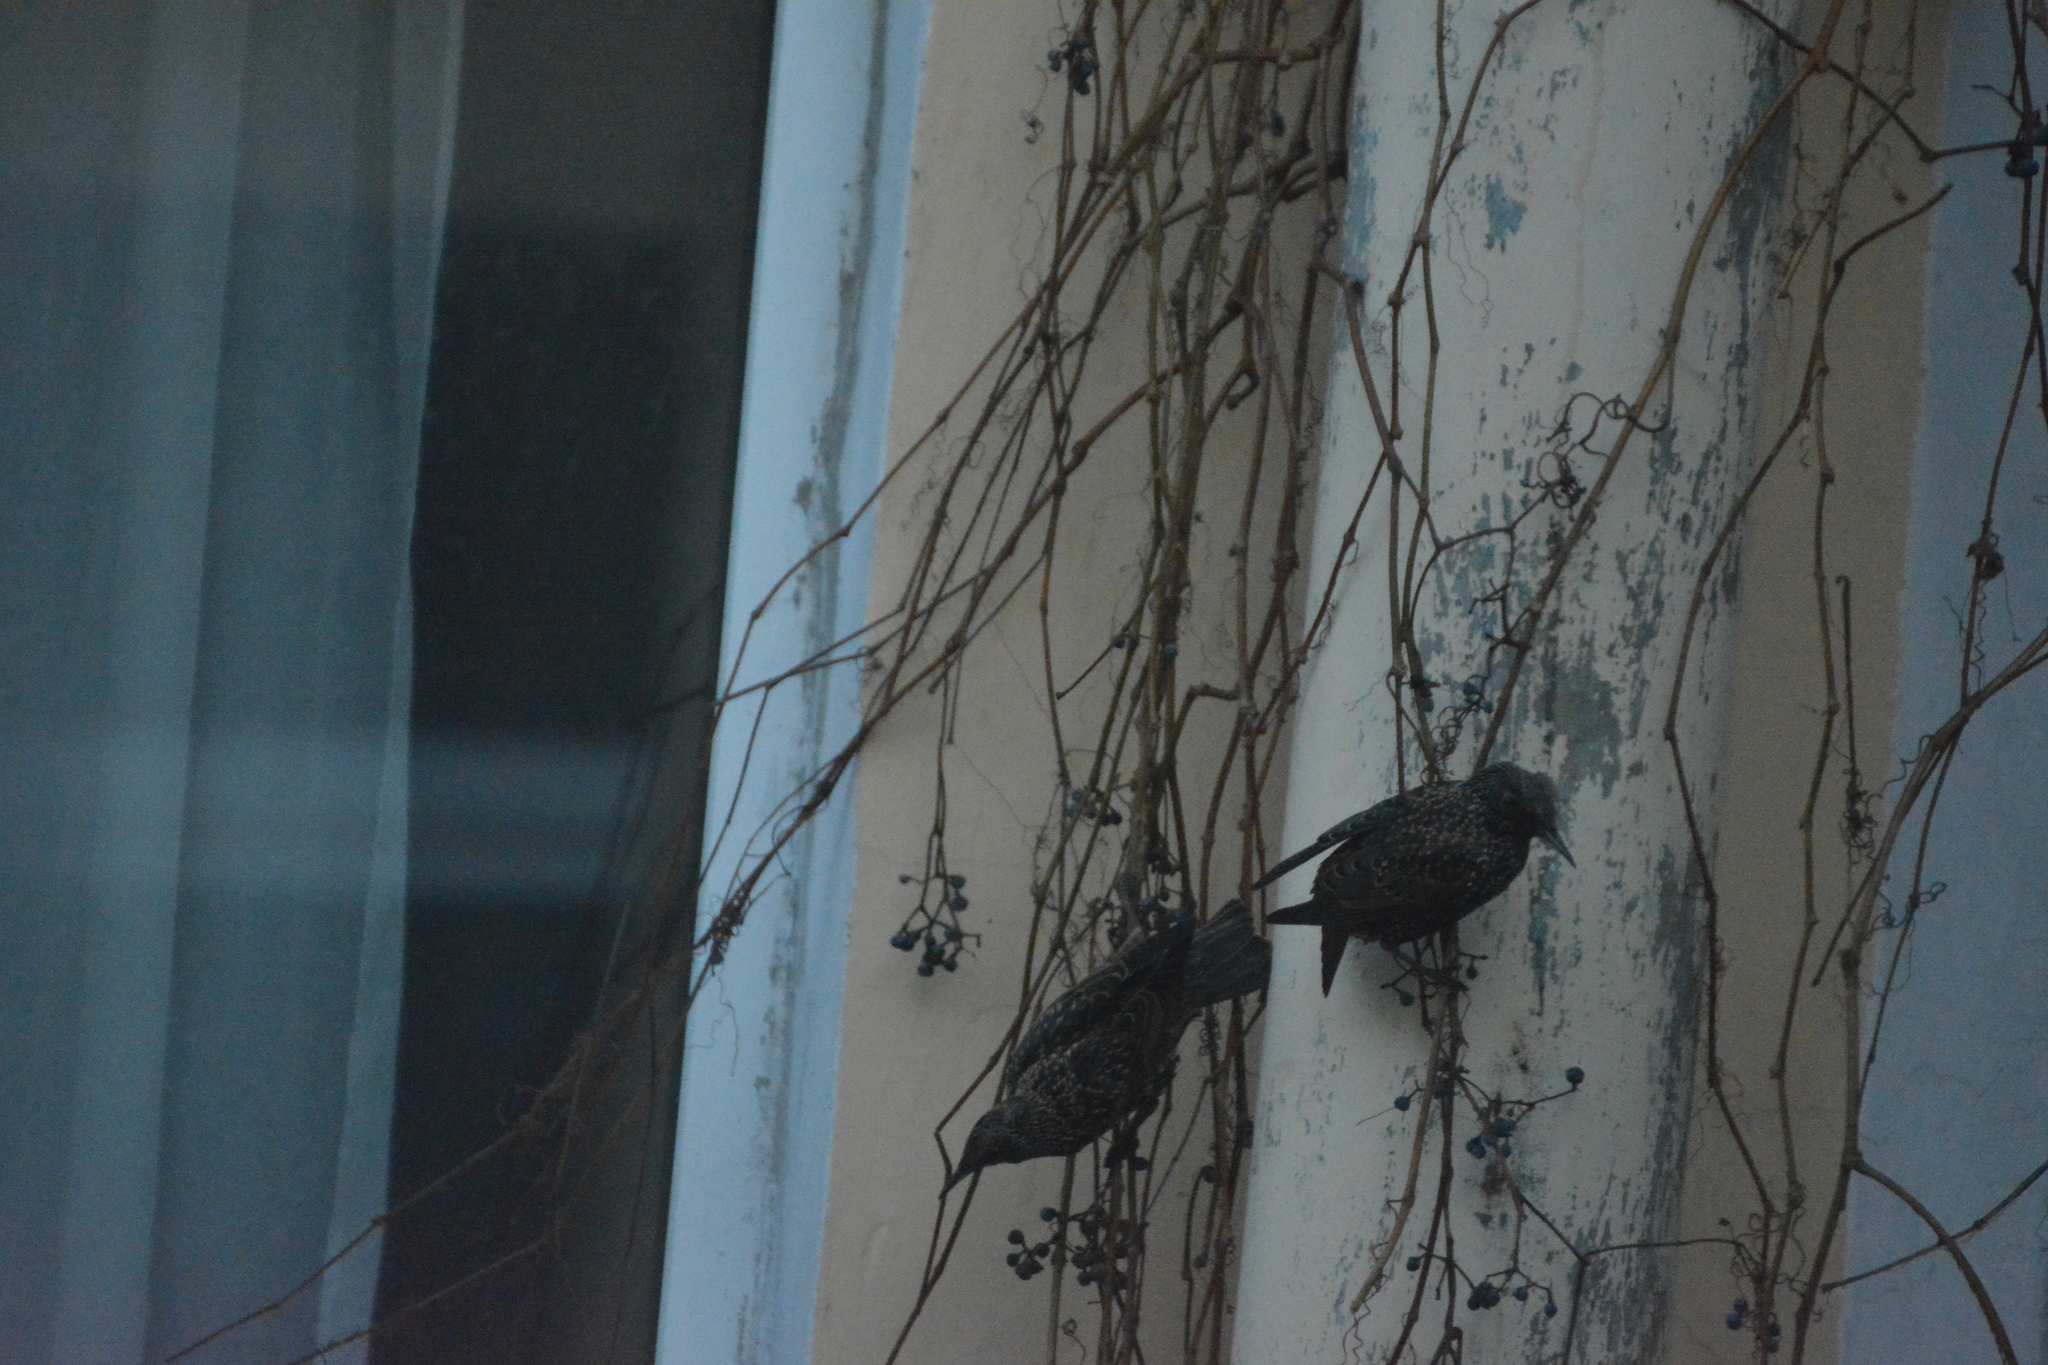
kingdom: Animalia
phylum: Chordata
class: Aves
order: Passeriformes
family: Sturnidae
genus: Sturnus
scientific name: Sturnus vulgaris
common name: Common starling
